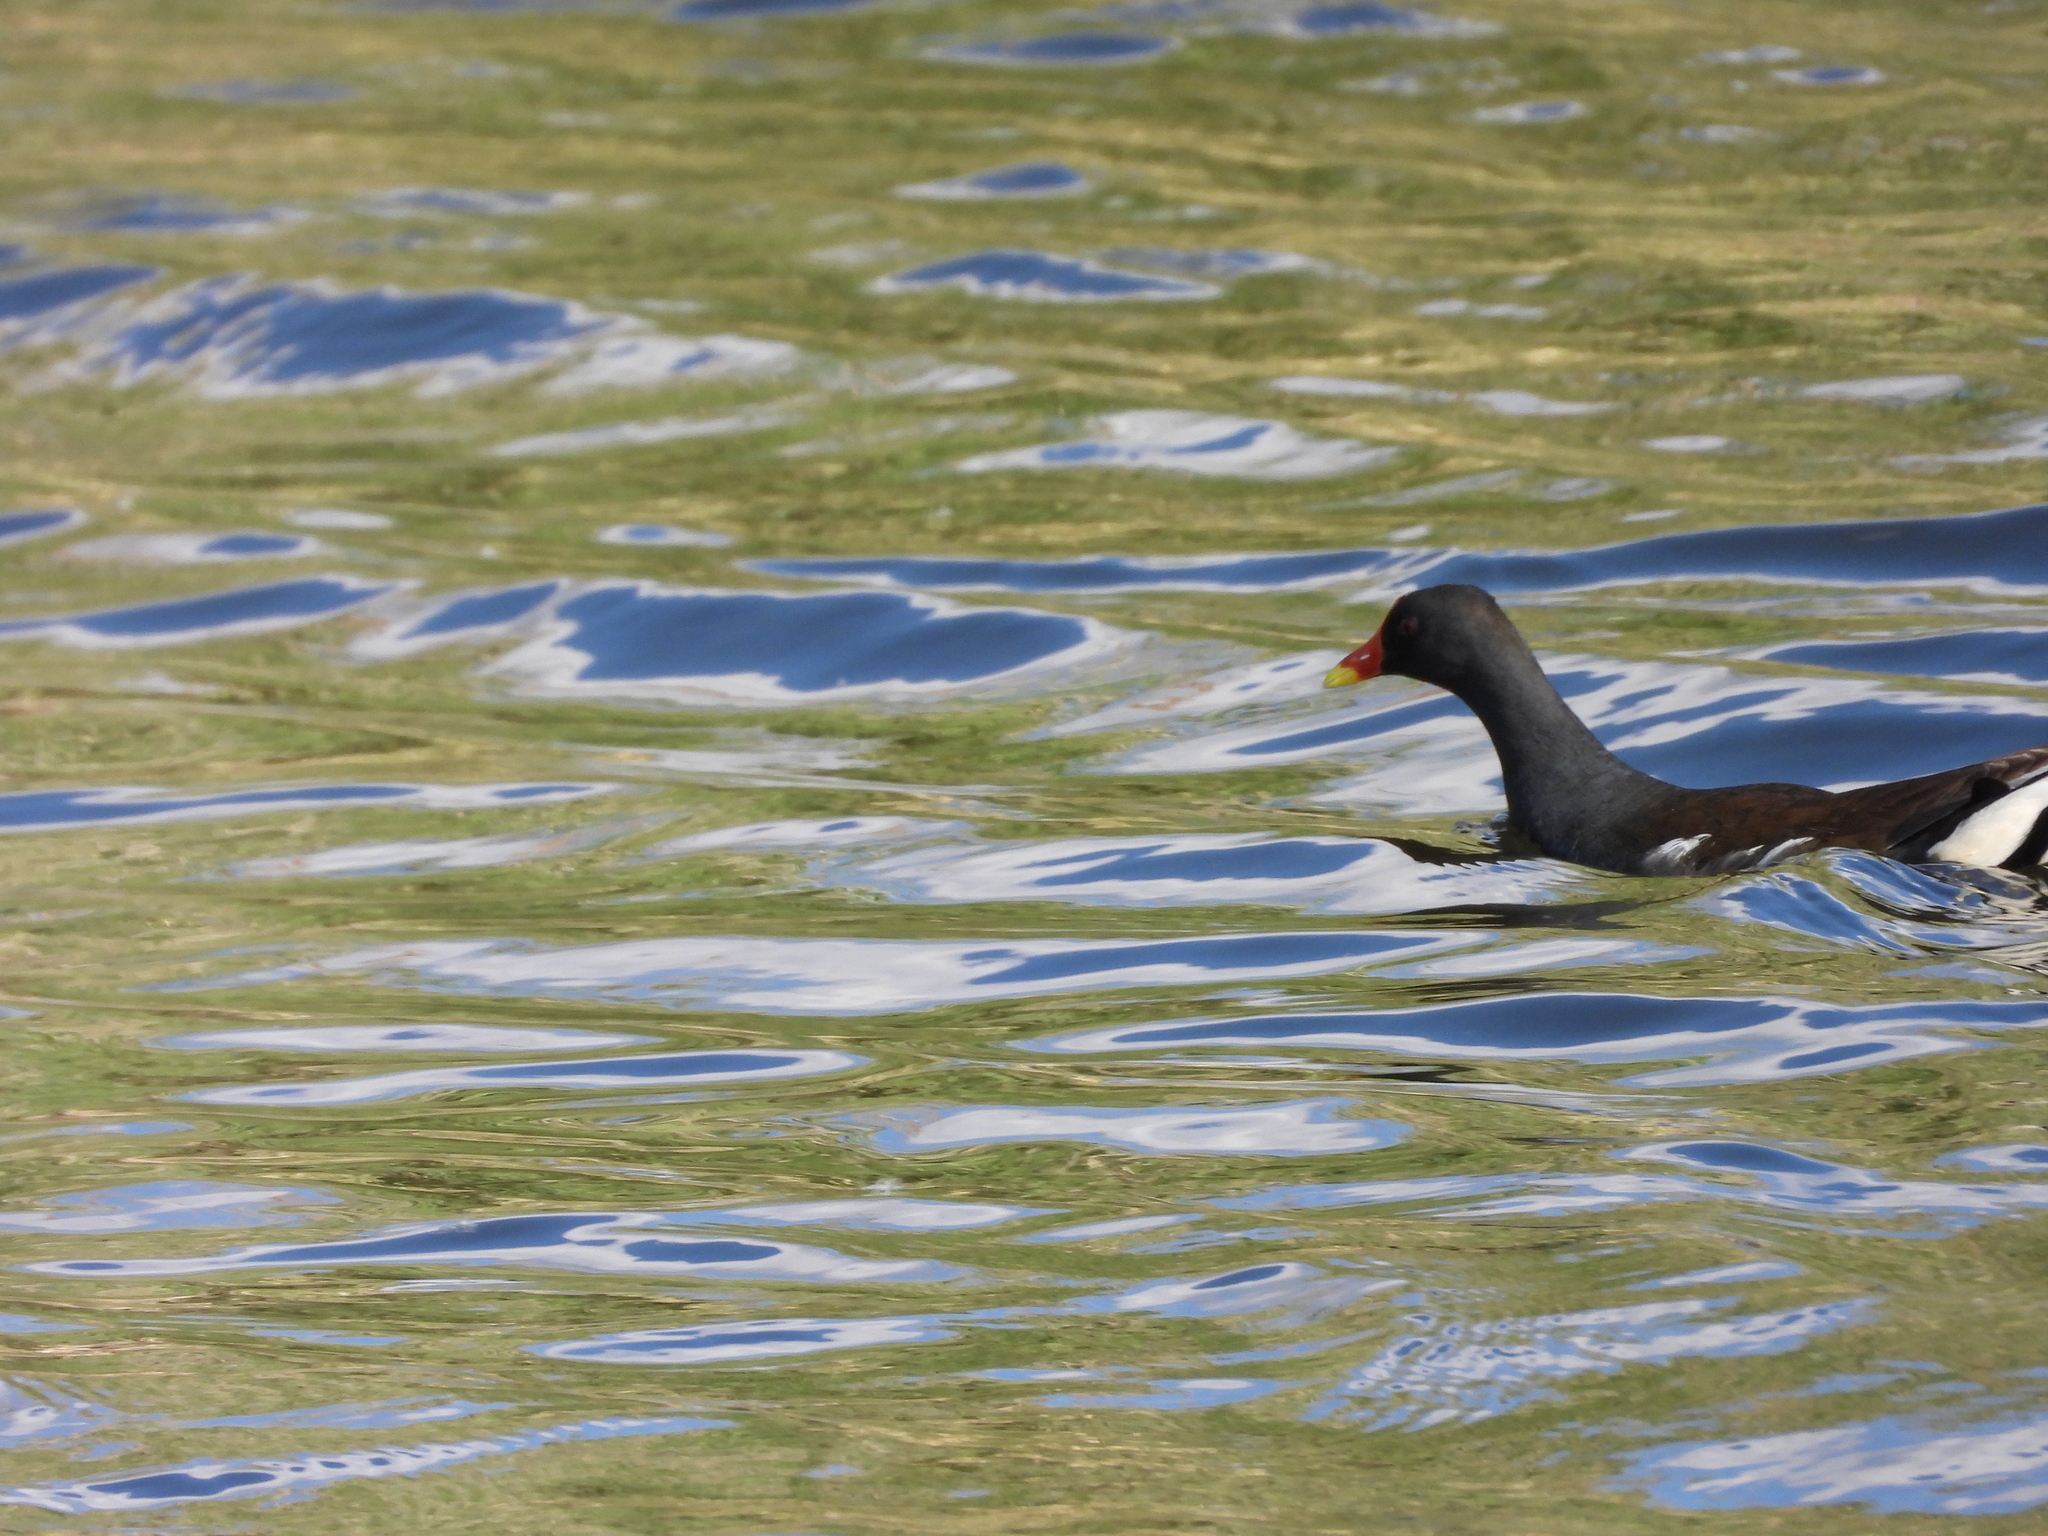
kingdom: Animalia
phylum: Chordata
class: Aves
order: Gruiformes
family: Rallidae
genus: Gallinula
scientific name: Gallinula chloropus
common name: Common moorhen
